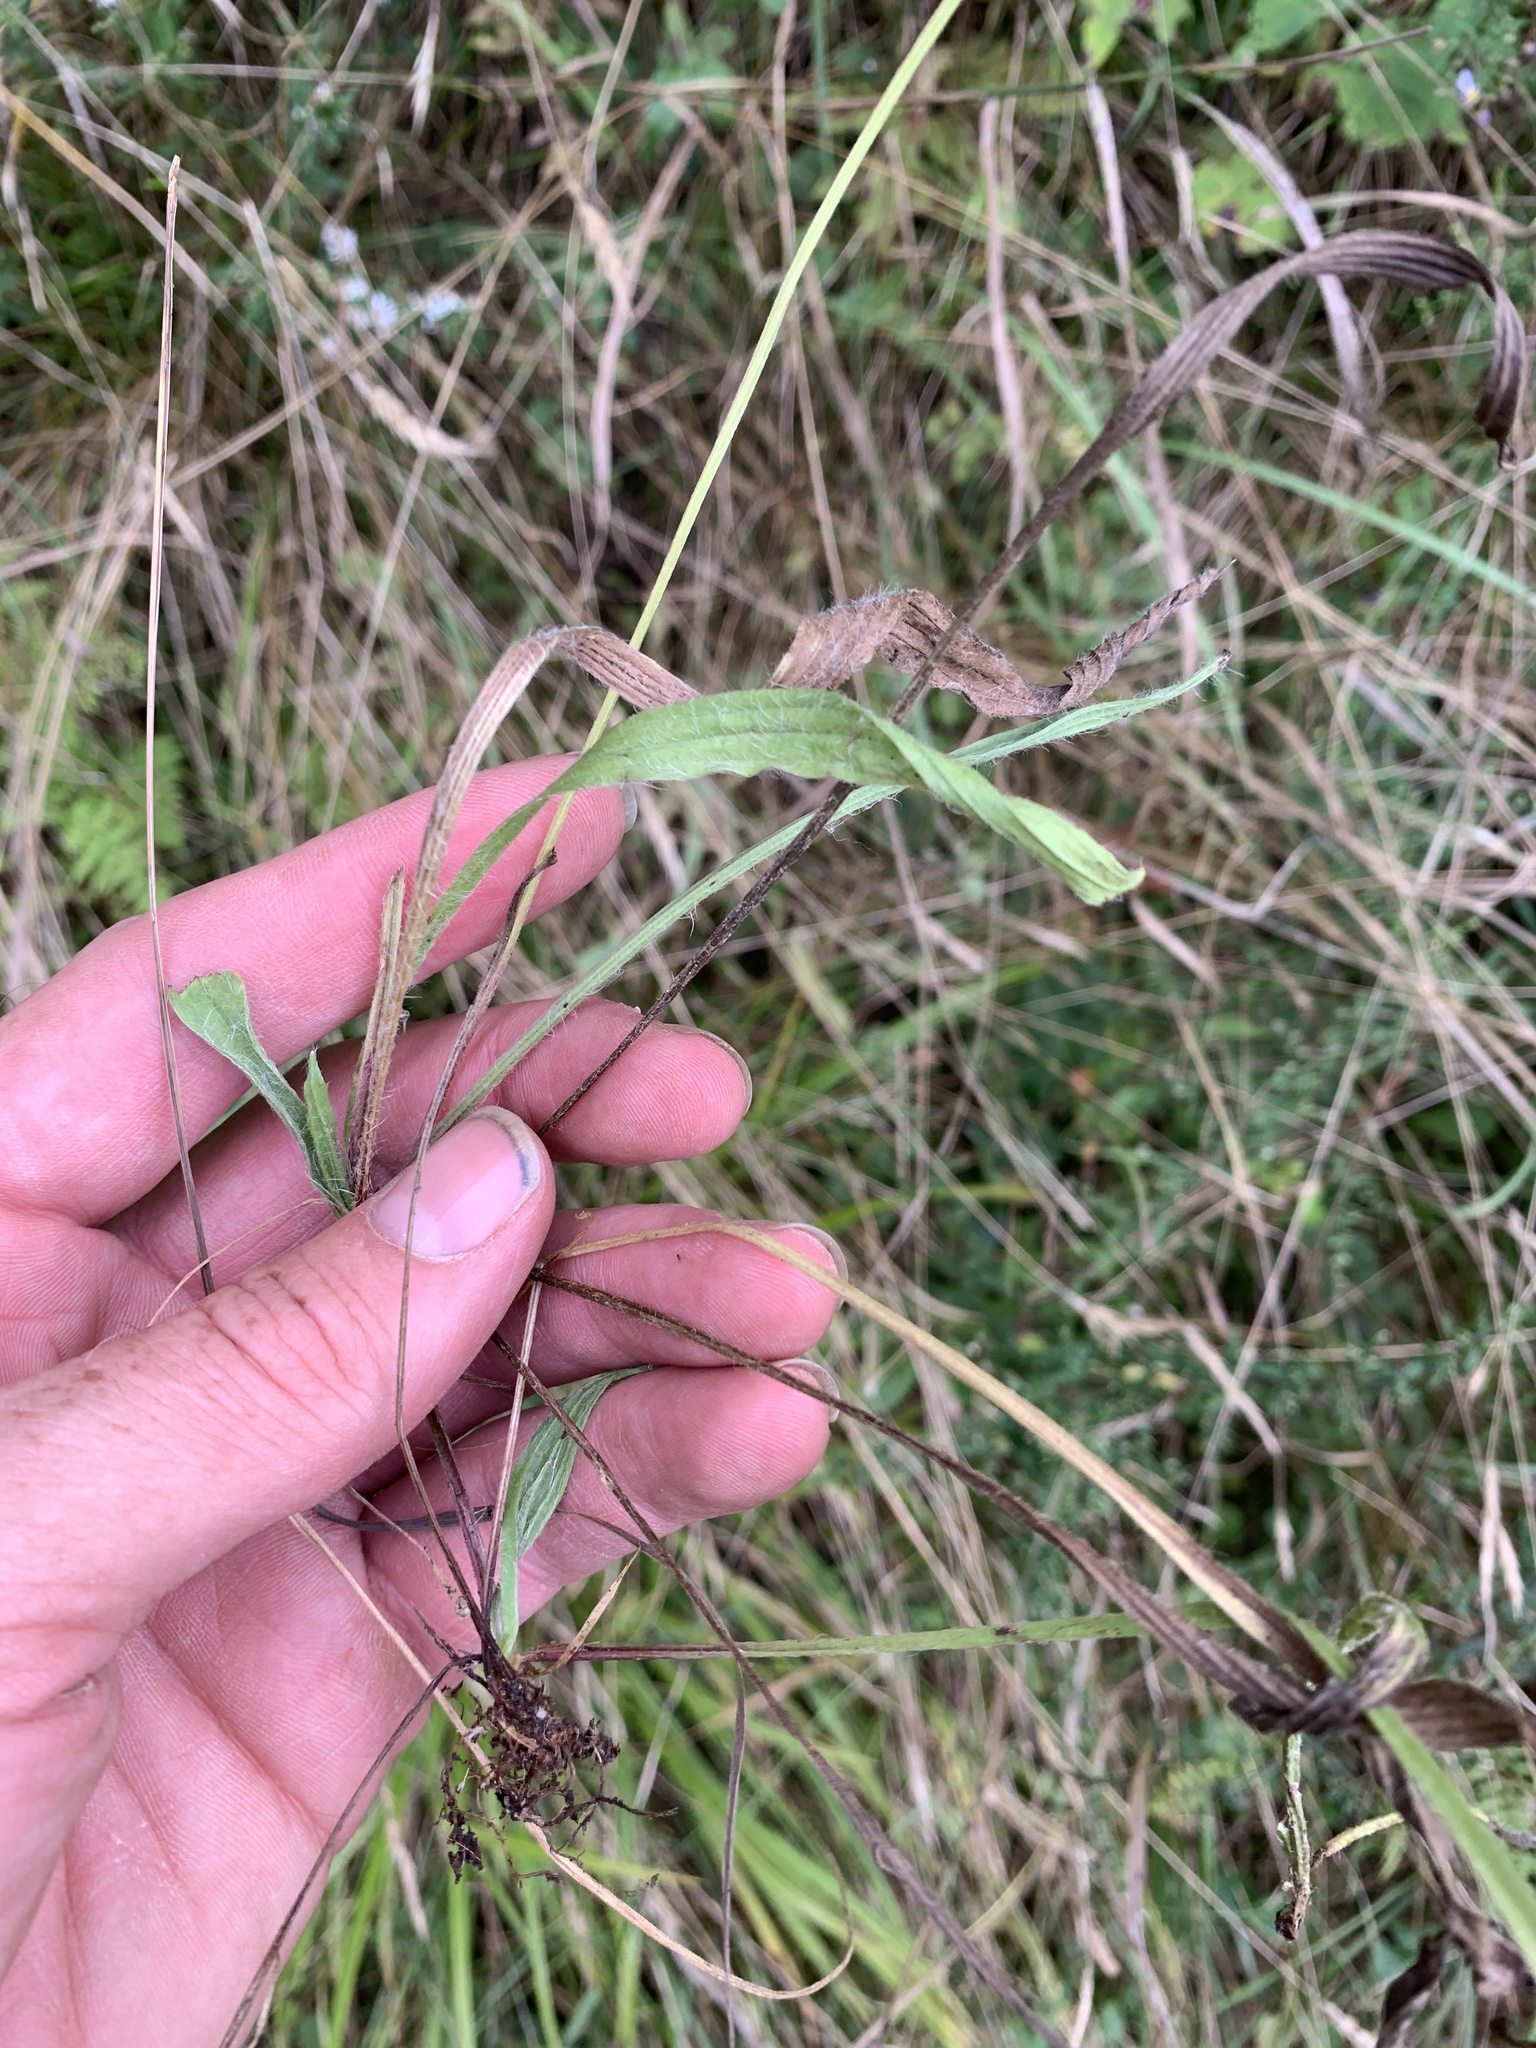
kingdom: Plantae
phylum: Tracheophyta
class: Magnoliopsida
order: Lamiales
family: Plantaginaceae
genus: Plantago
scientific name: Plantago lanceolata
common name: Ribwort plantain
